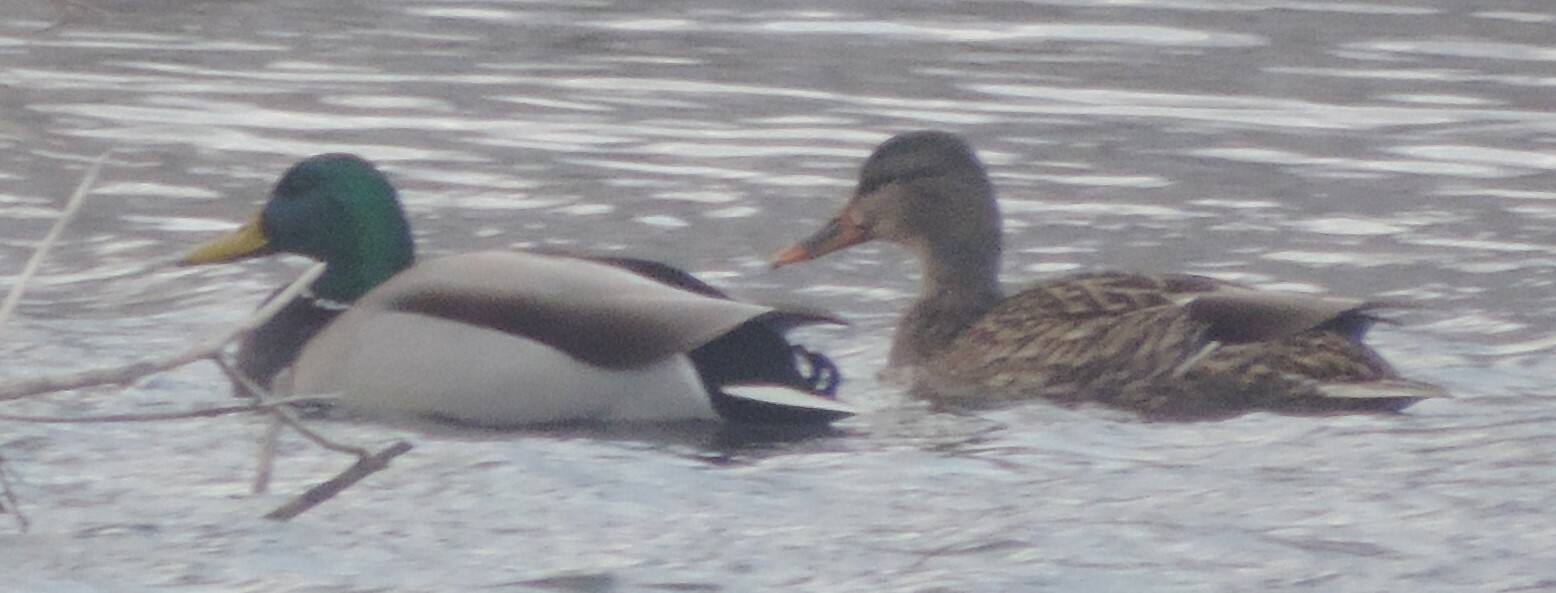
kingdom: Animalia
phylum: Chordata
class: Aves
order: Anseriformes
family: Anatidae
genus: Anas
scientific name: Anas platyrhynchos
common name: Mallard
